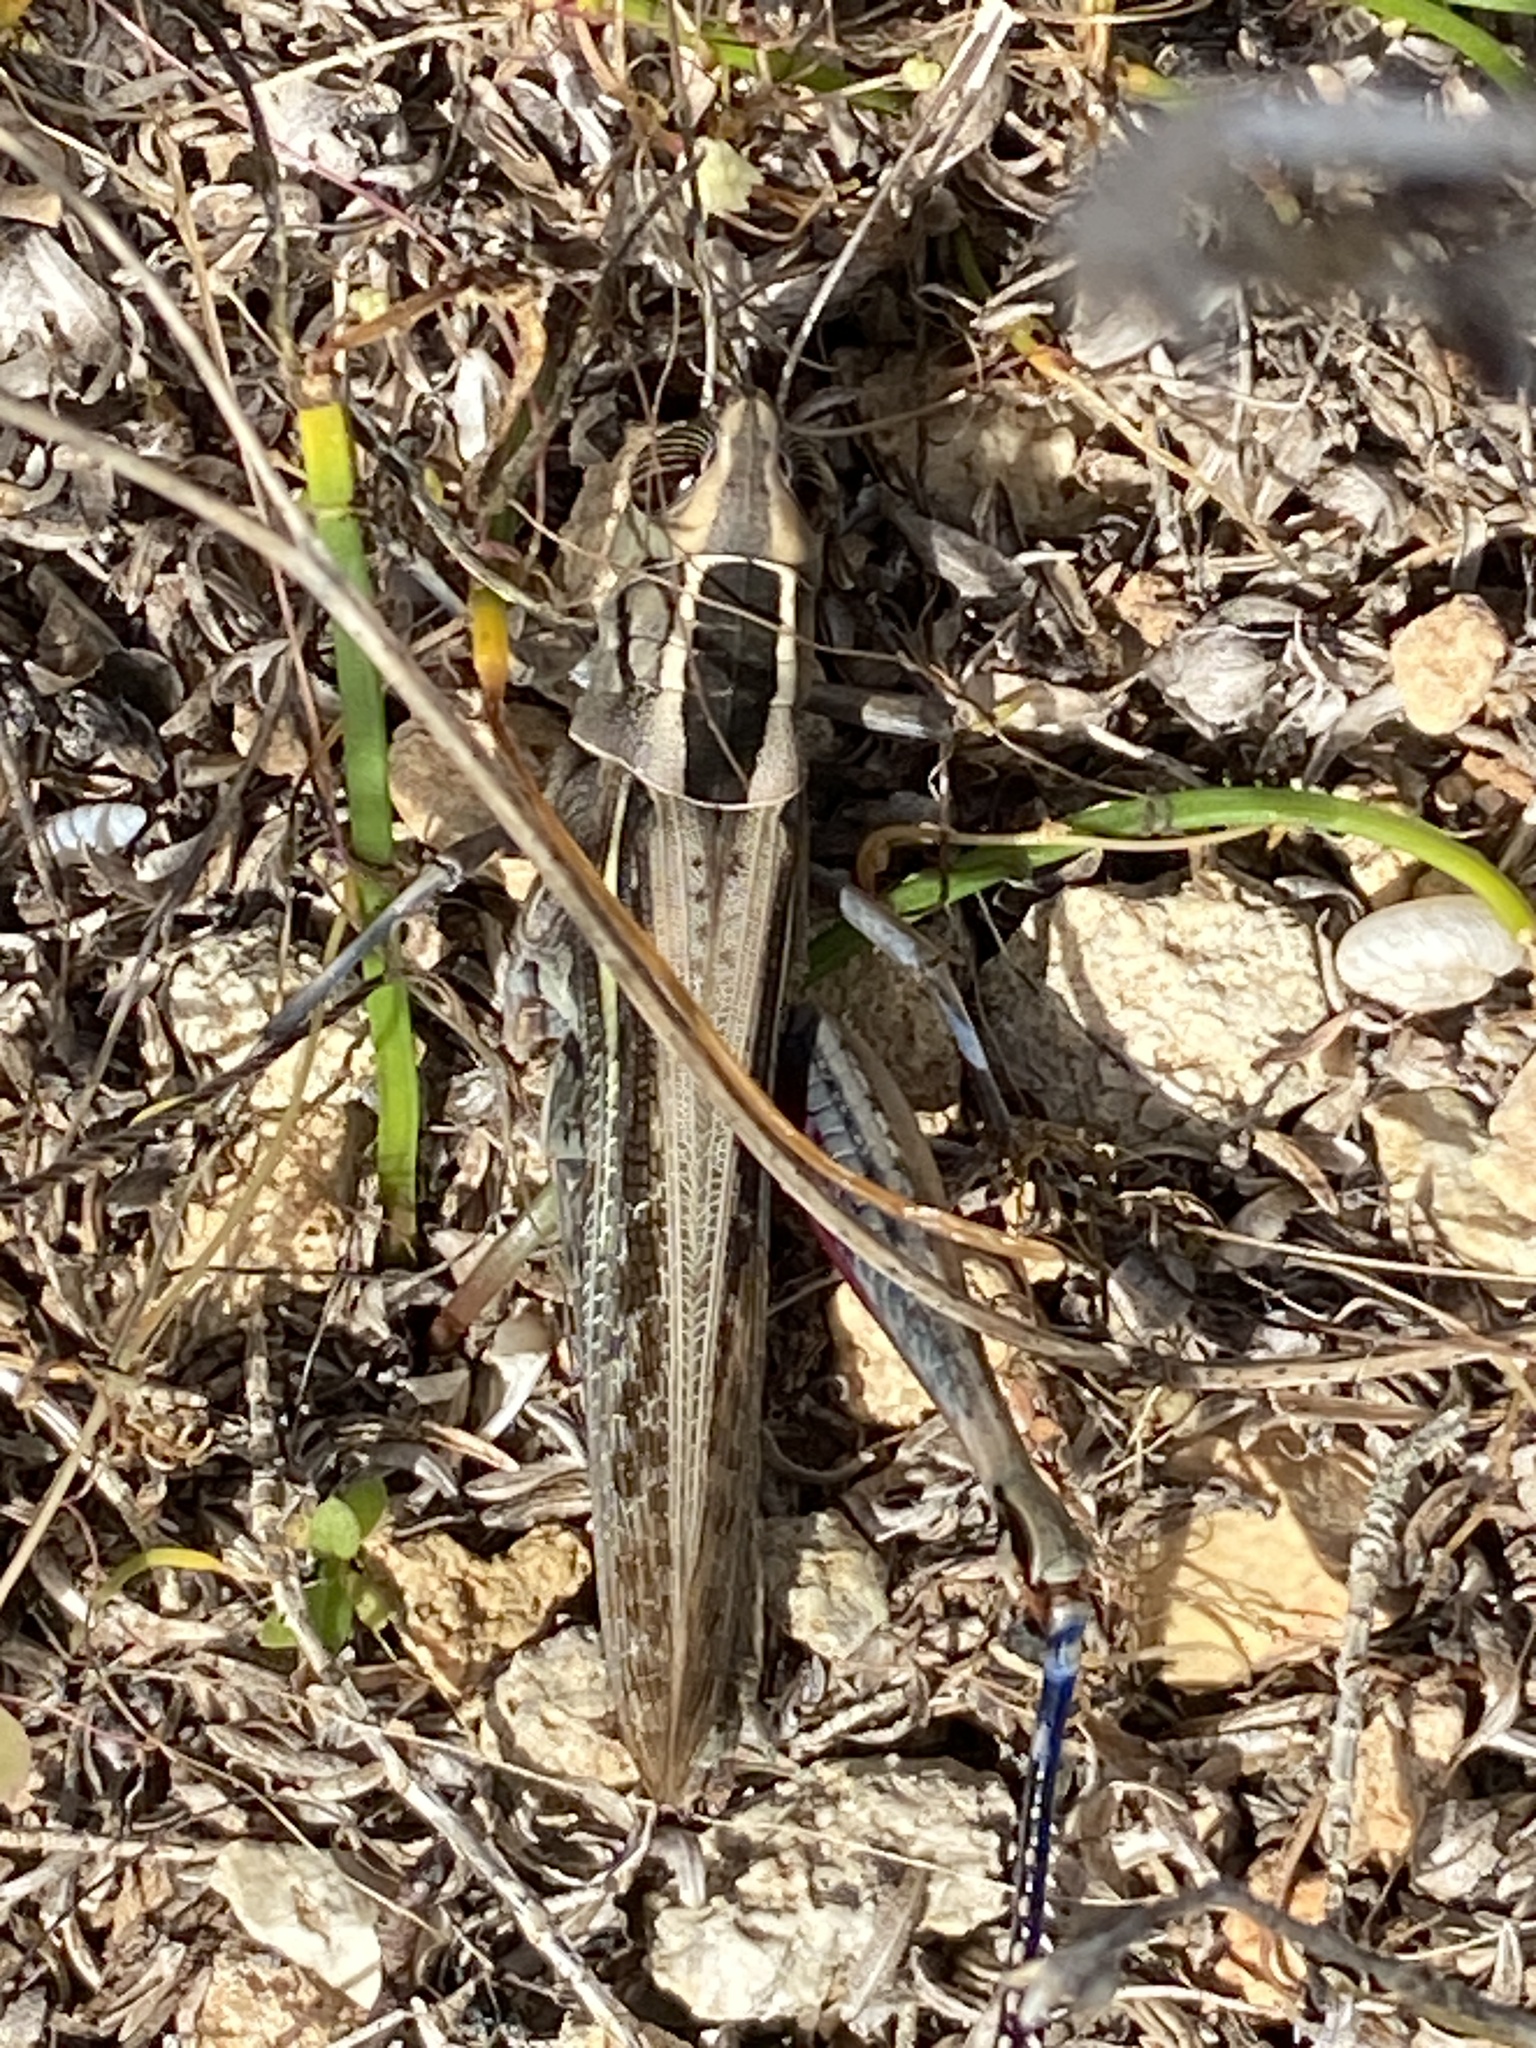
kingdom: Animalia
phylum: Arthropoda
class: Insecta
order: Orthoptera
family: Acrididae
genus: Eyprepocnemis
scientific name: Eyprepocnemis plorans
